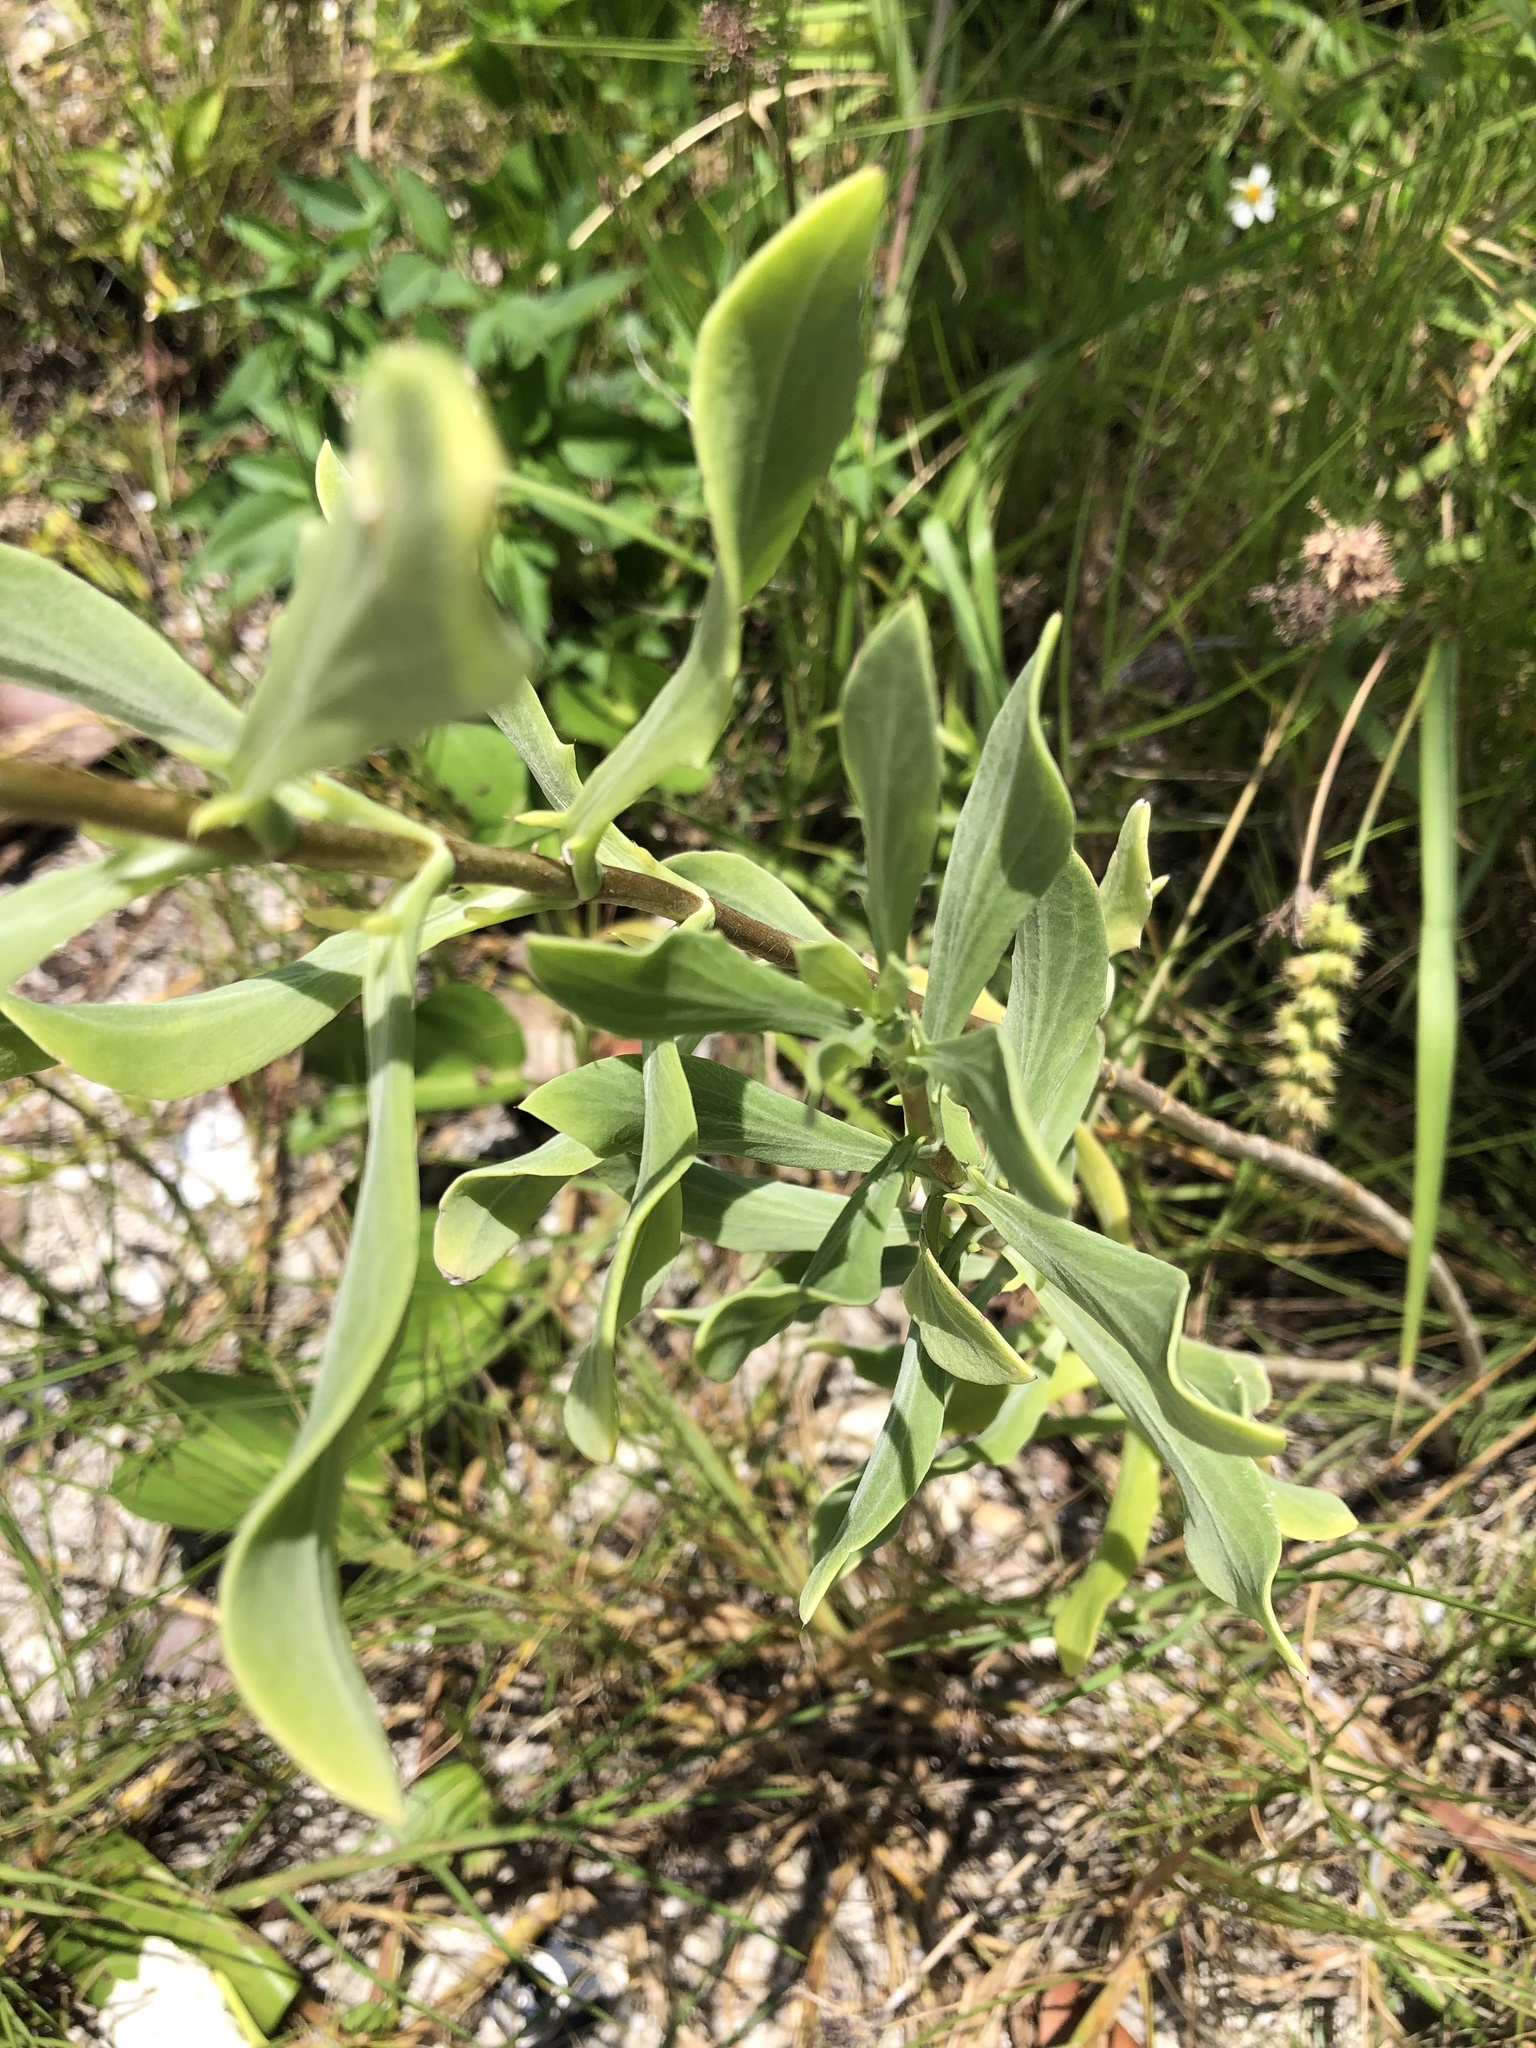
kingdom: Plantae
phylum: Tracheophyta
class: Magnoliopsida
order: Asterales
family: Asteraceae
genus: Borrichia
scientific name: Borrichia frutescens
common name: Sea oxeye
